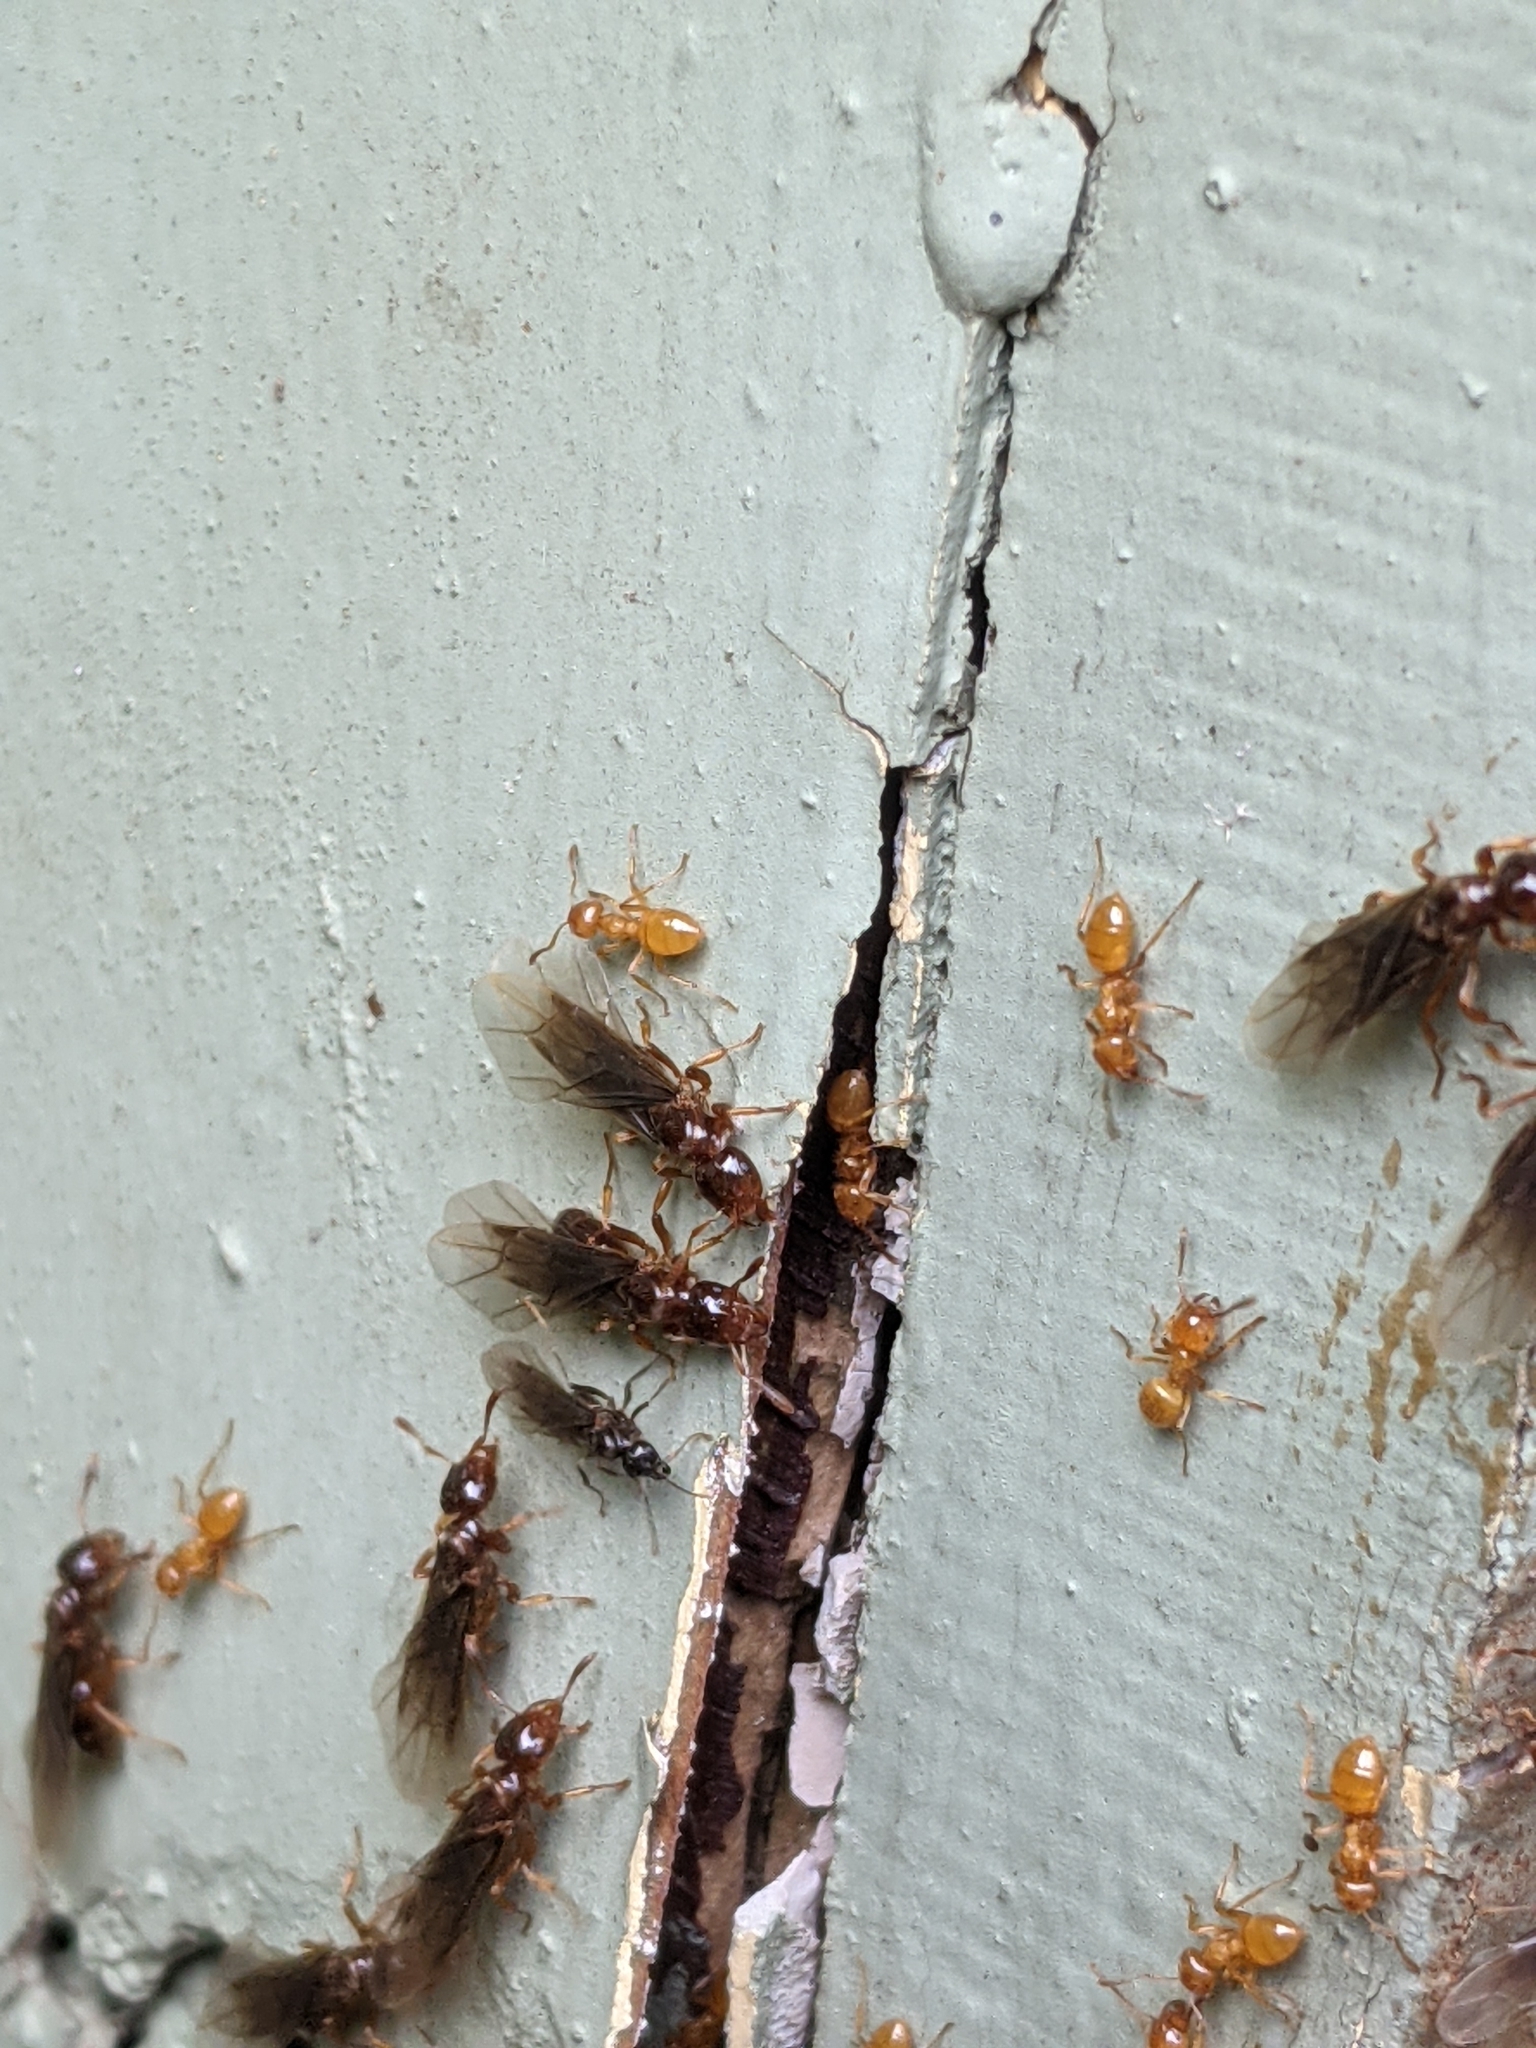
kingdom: Animalia
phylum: Arthropoda
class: Insecta
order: Hymenoptera
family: Formicidae
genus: Lasius
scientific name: Lasius claviger
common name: Common citronella ant
